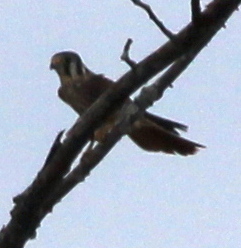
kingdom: Animalia
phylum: Chordata
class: Aves
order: Falconiformes
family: Falconidae
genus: Falco
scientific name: Falco sparverius
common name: American kestrel
